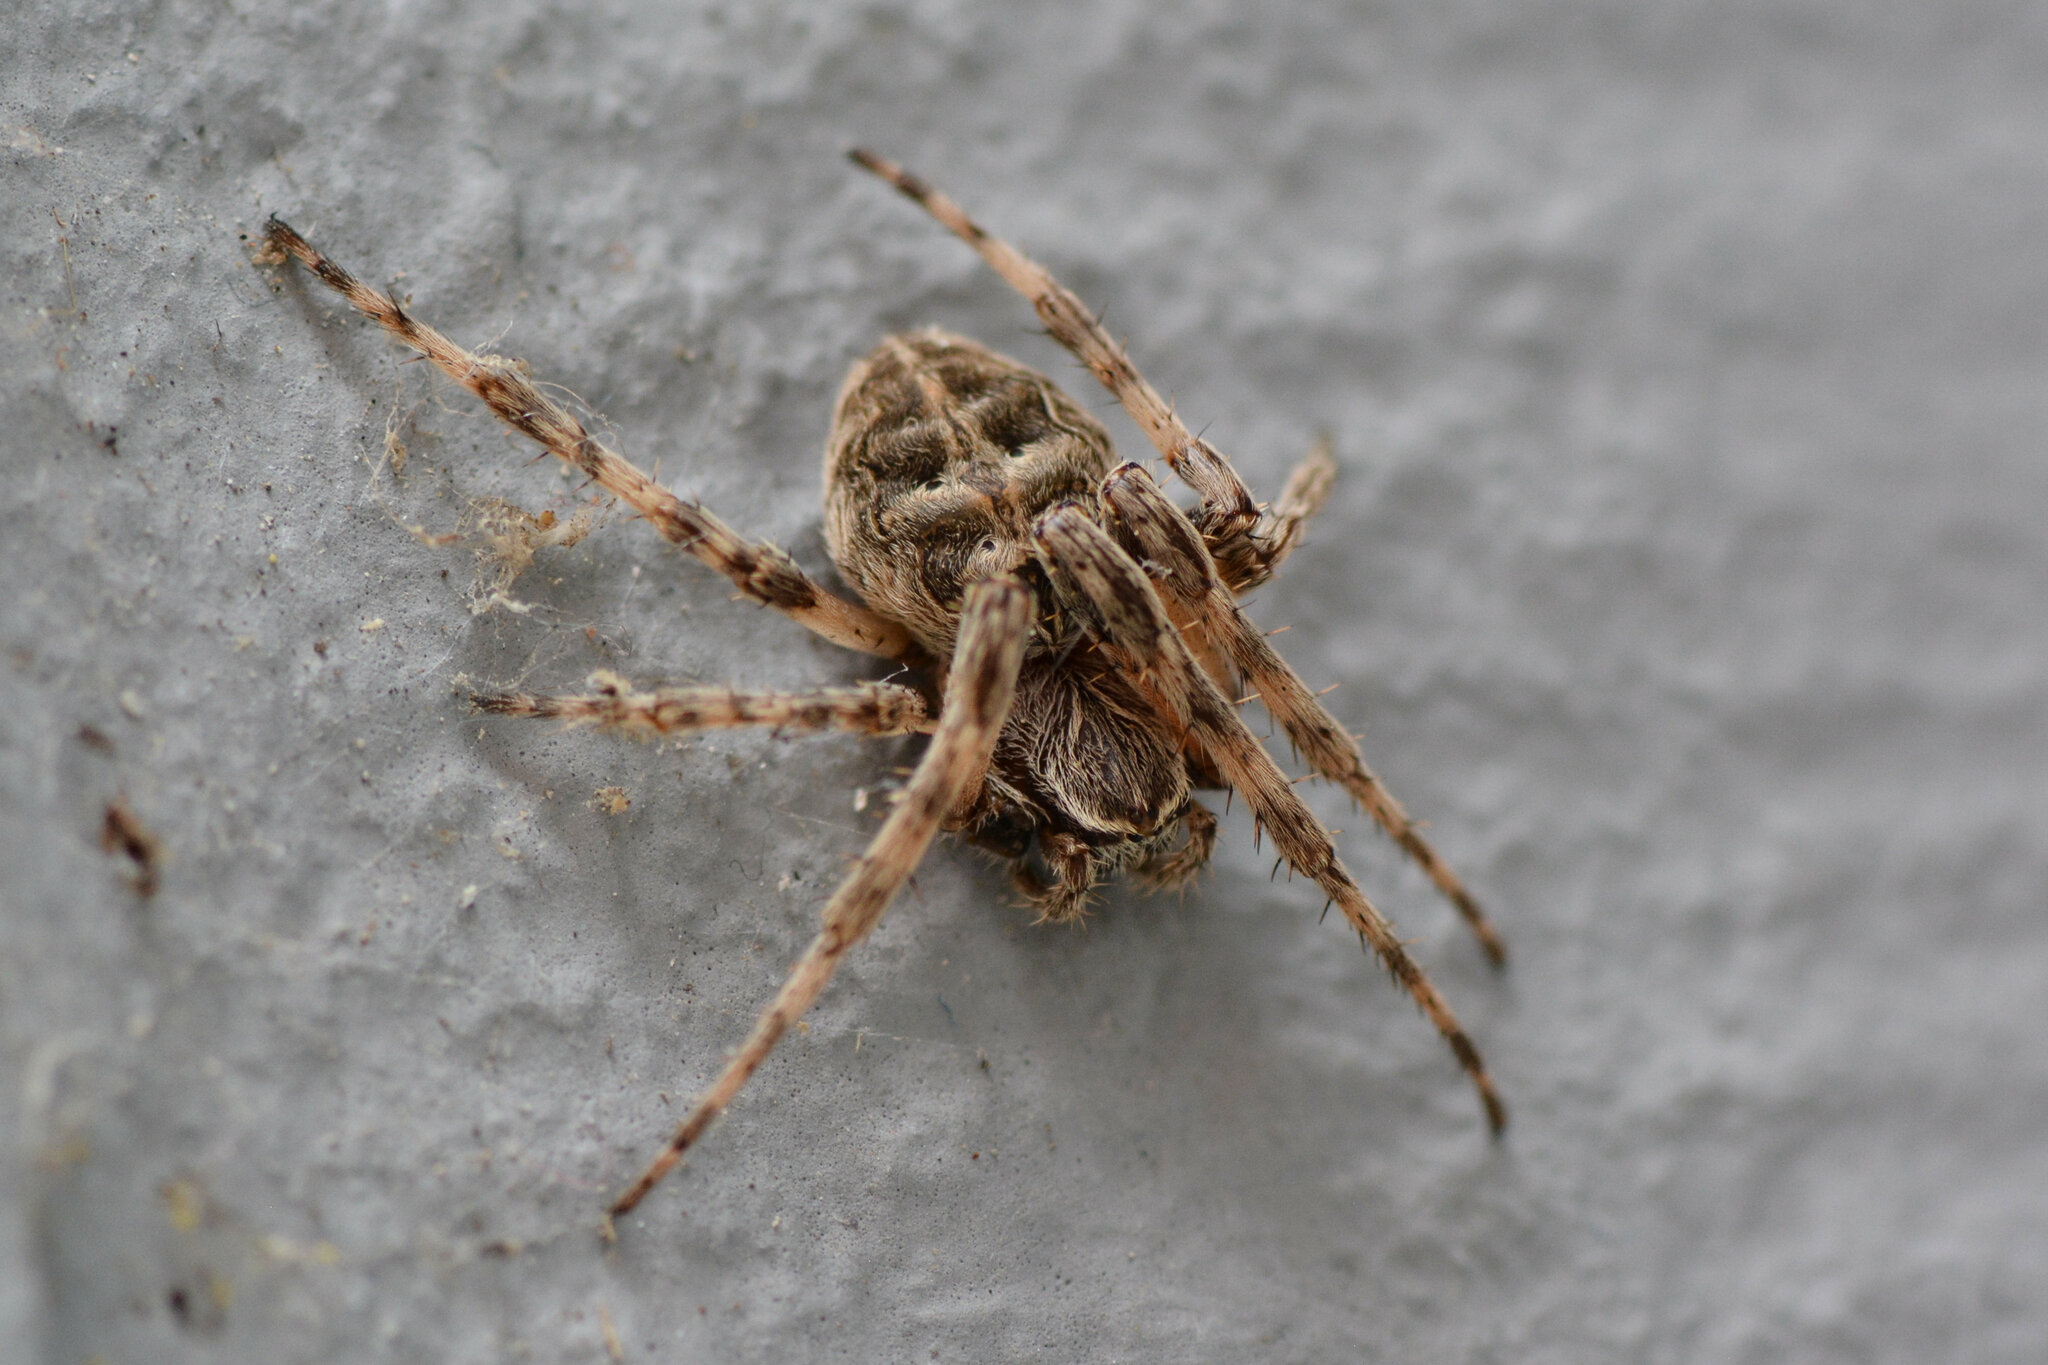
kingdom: Animalia
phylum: Arthropoda
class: Arachnida
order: Araneae
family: Araneidae
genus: Larinioides
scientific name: Larinioides sclopetarius
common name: Bridge orbweaver
